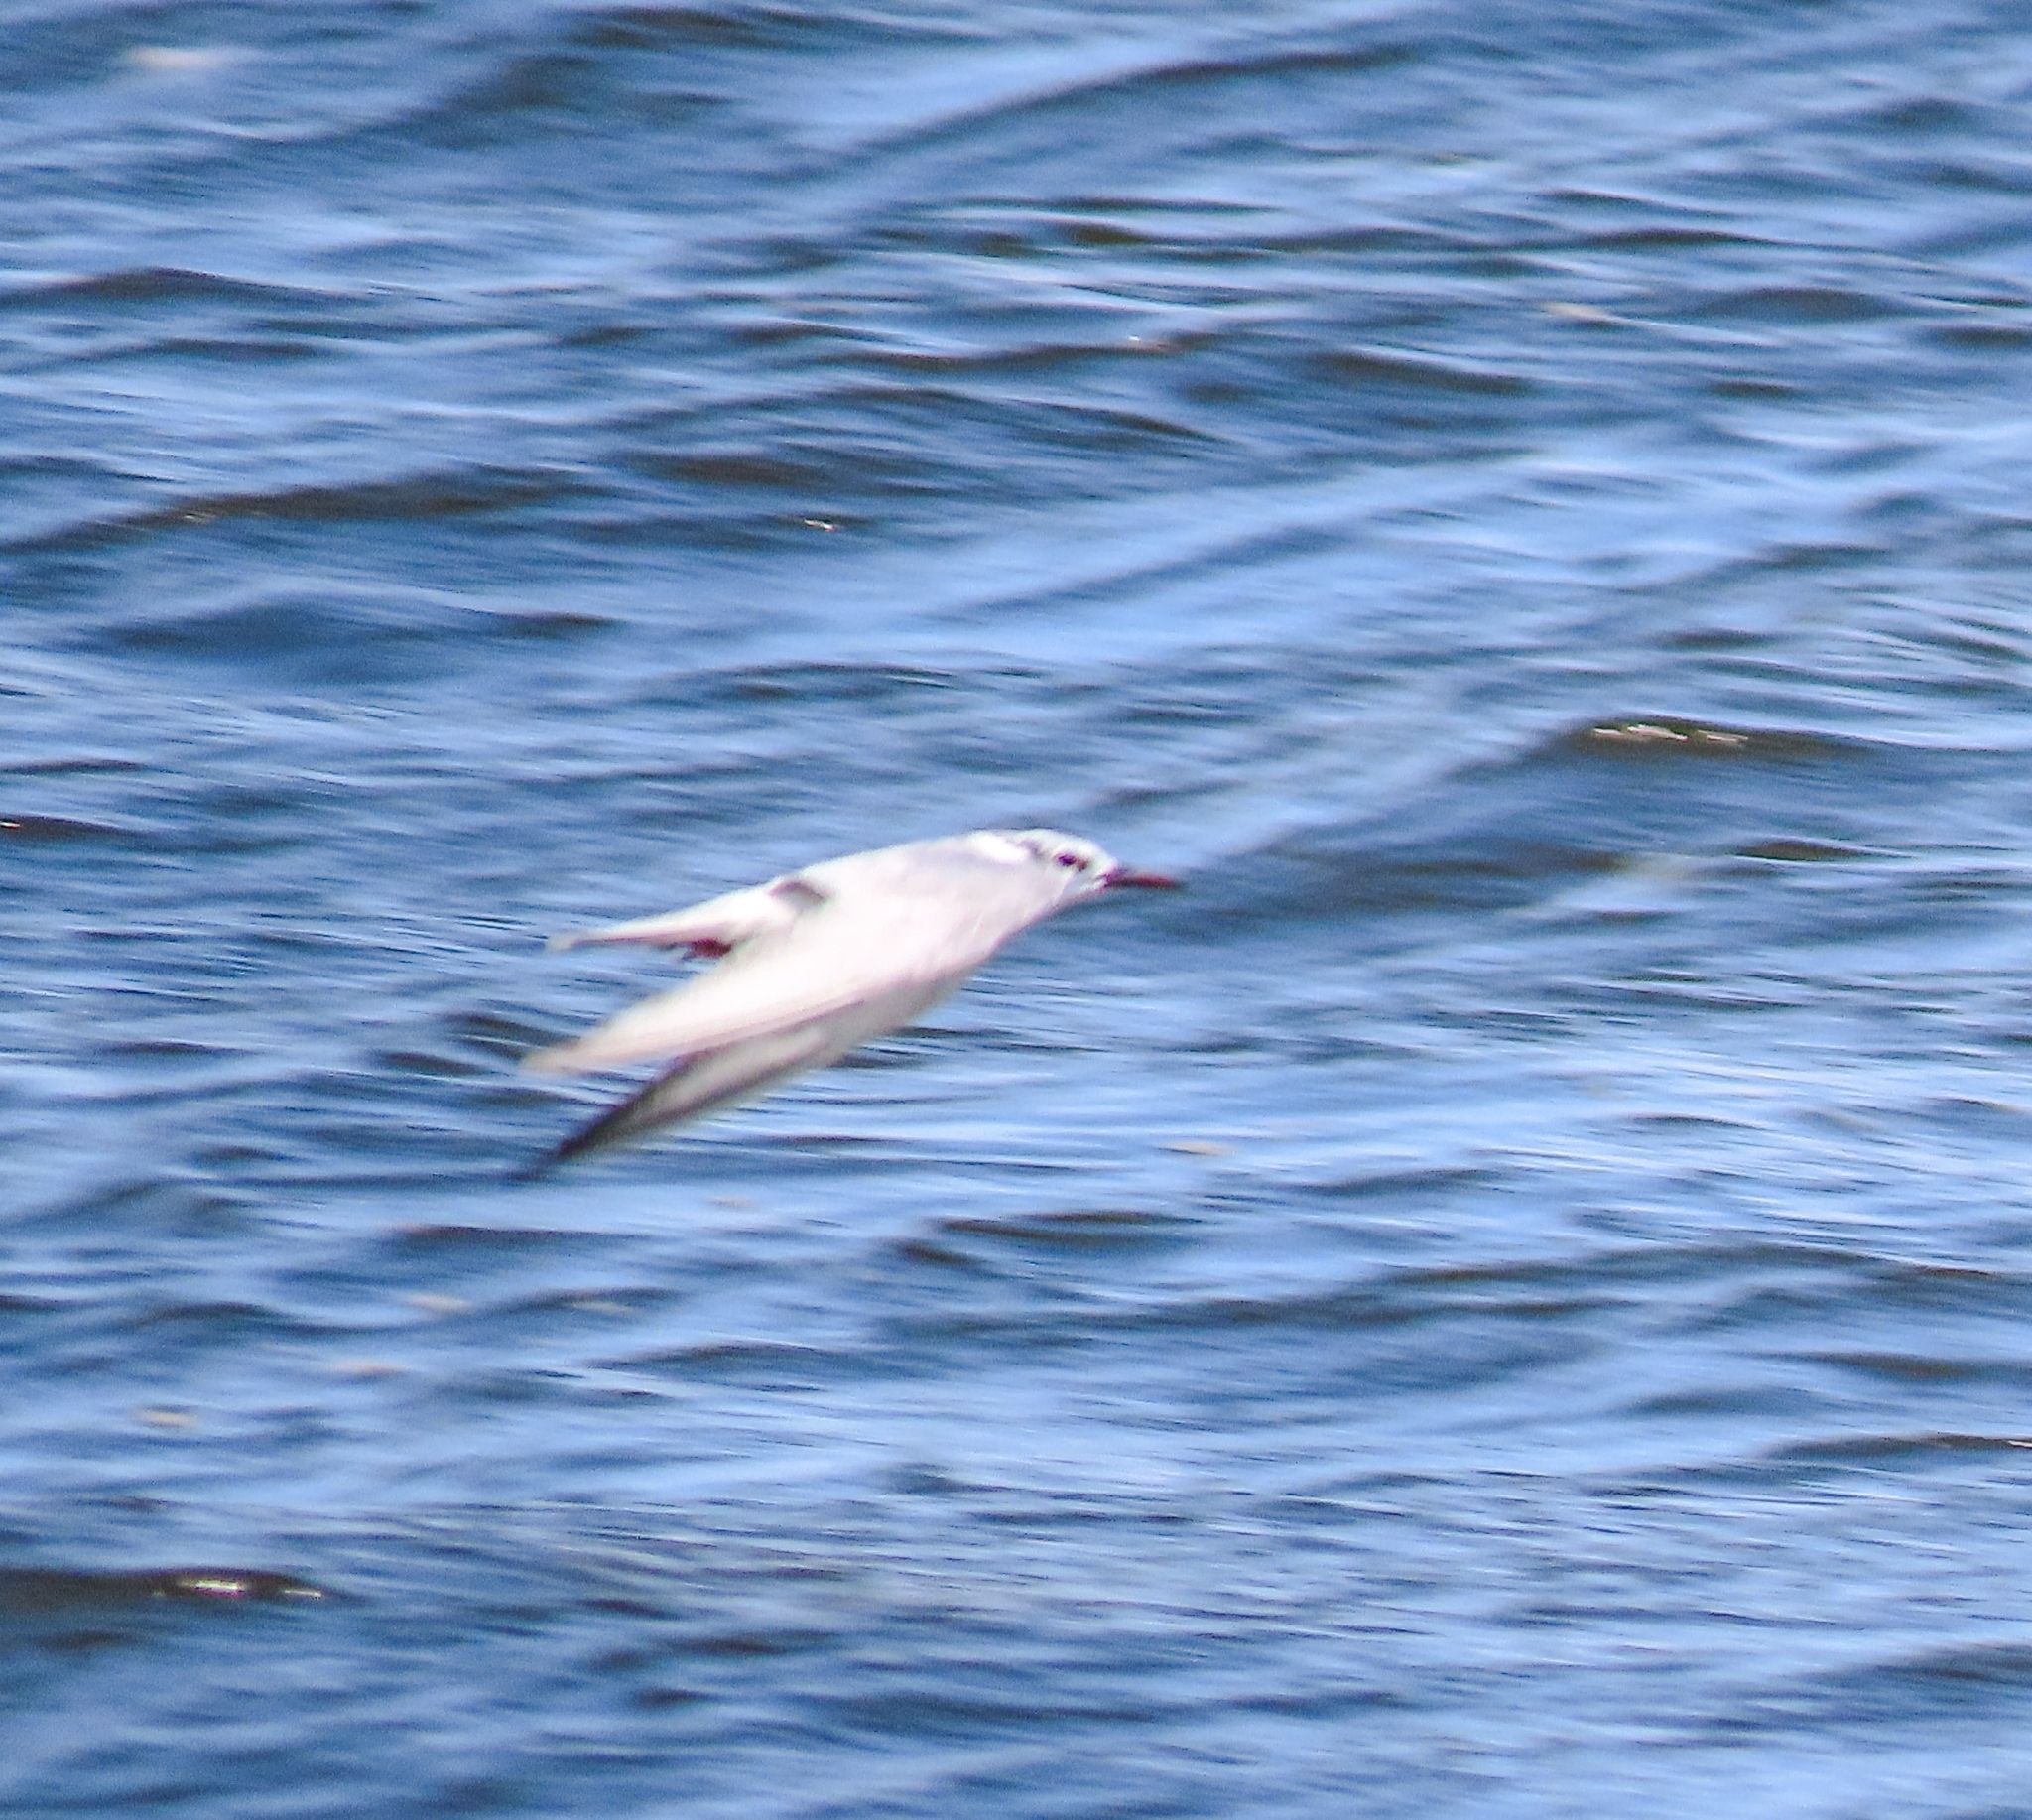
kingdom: Animalia
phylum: Chordata
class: Aves
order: Charadriiformes
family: Laridae
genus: Chlidonias
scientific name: Chlidonias hybrida
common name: Whiskered tern
